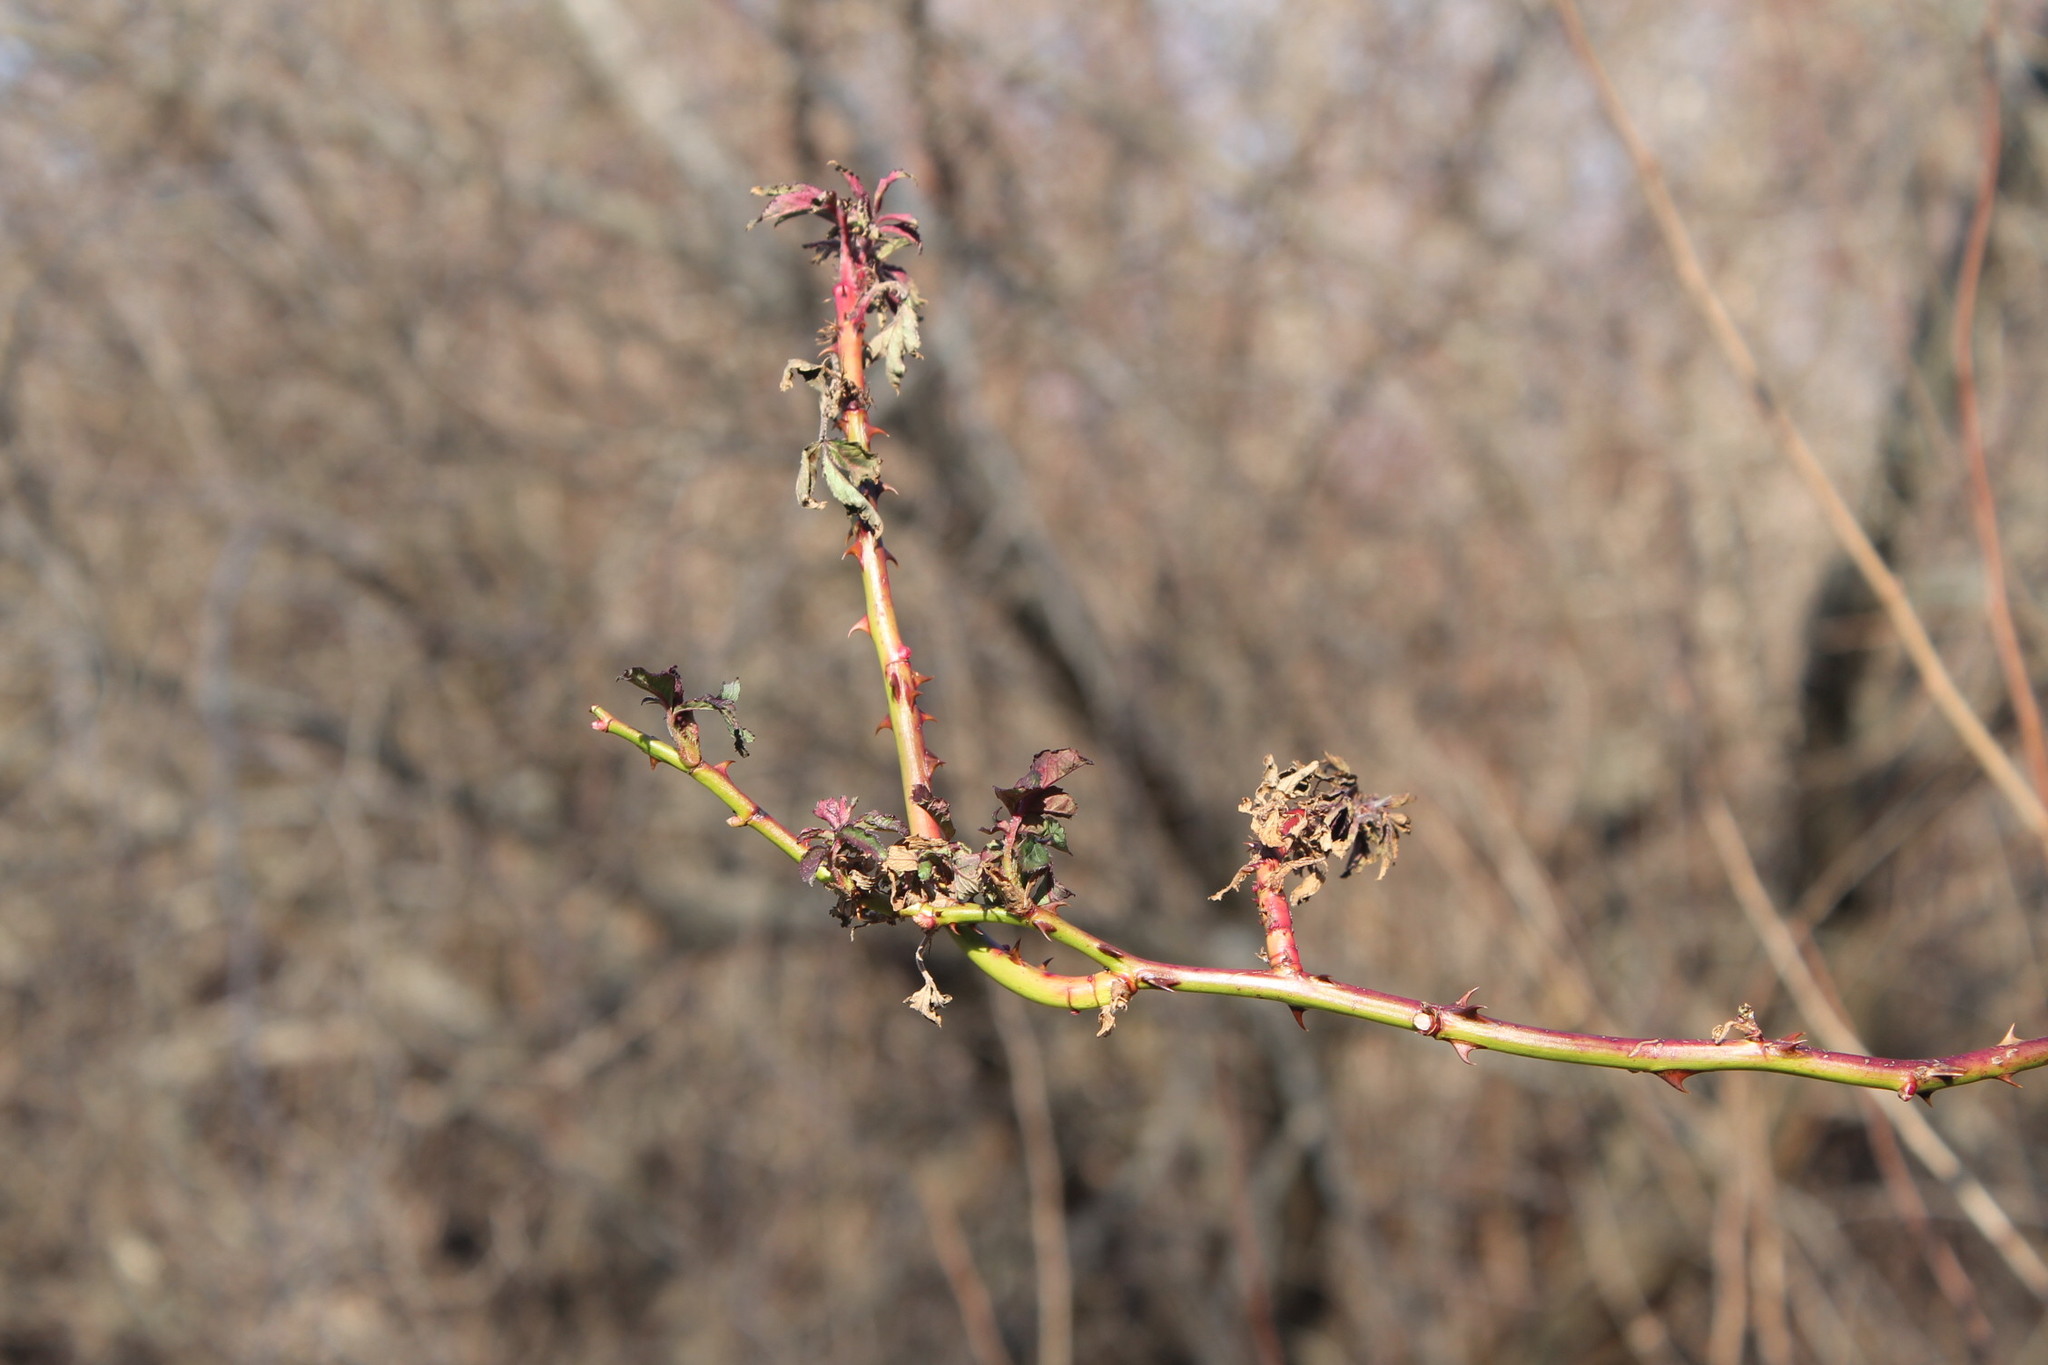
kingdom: Viruses
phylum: Negarnaviricota
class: Ellioviricetes
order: Bunyavirales
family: Fimoviridae
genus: Emaravirus
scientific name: Emaravirus rosae
